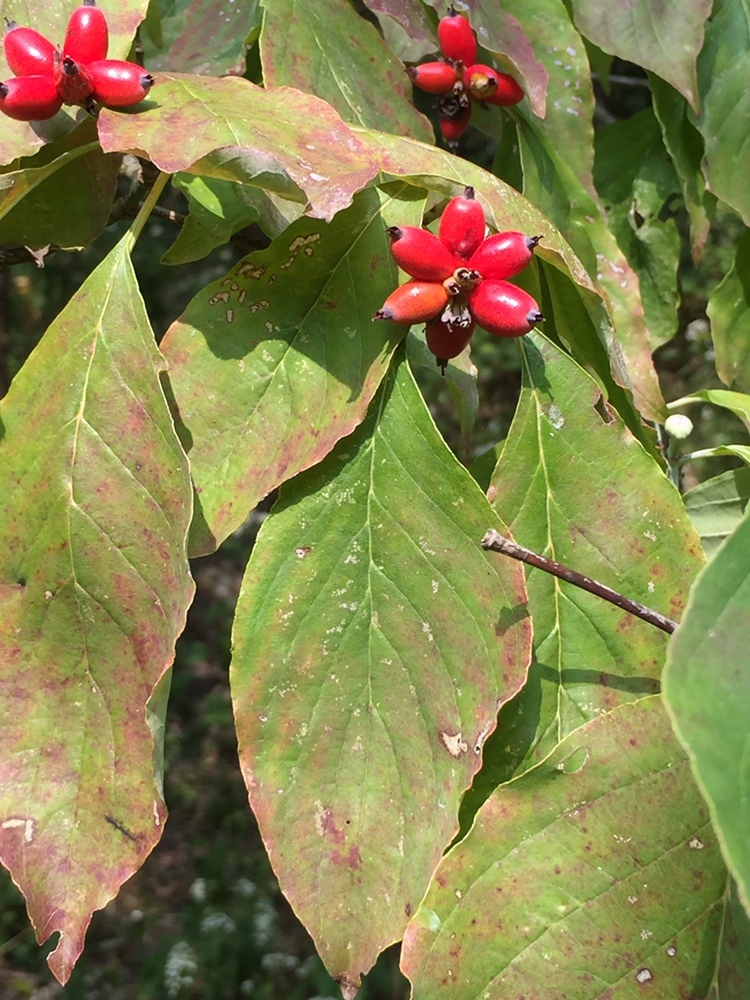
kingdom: Plantae
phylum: Tracheophyta
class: Magnoliopsida
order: Cornales
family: Cornaceae
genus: Cornus
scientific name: Cornus florida
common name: Flowering dogwood
